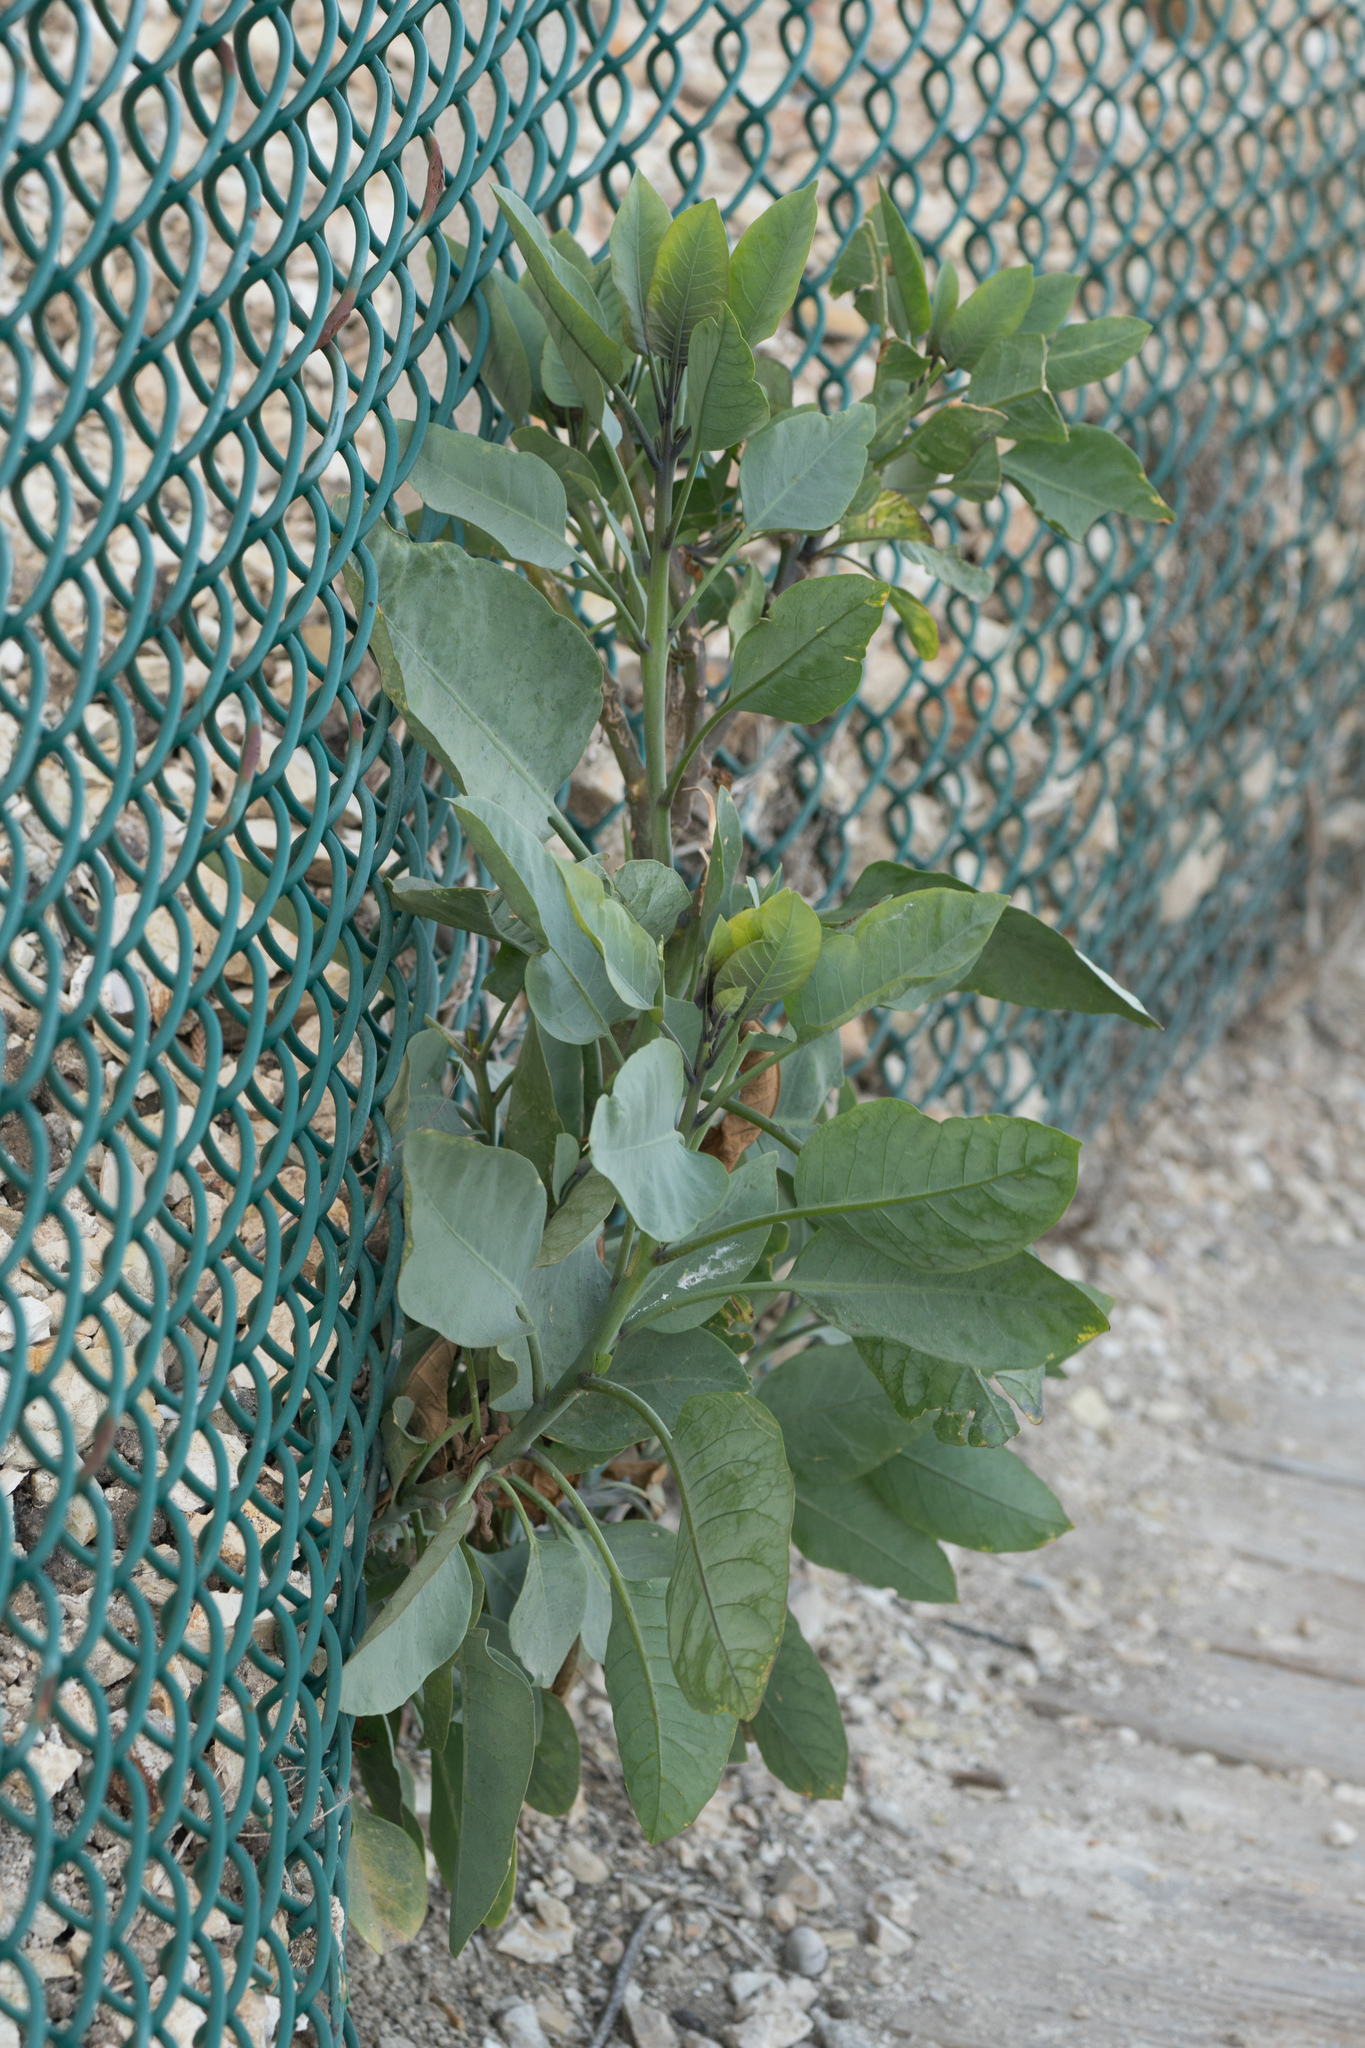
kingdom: Plantae
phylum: Tracheophyta
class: Magnoliopsida
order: Solanales
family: Solanaceae
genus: Nicotiana
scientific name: Nicotiana glauca
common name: Tree tobacco
